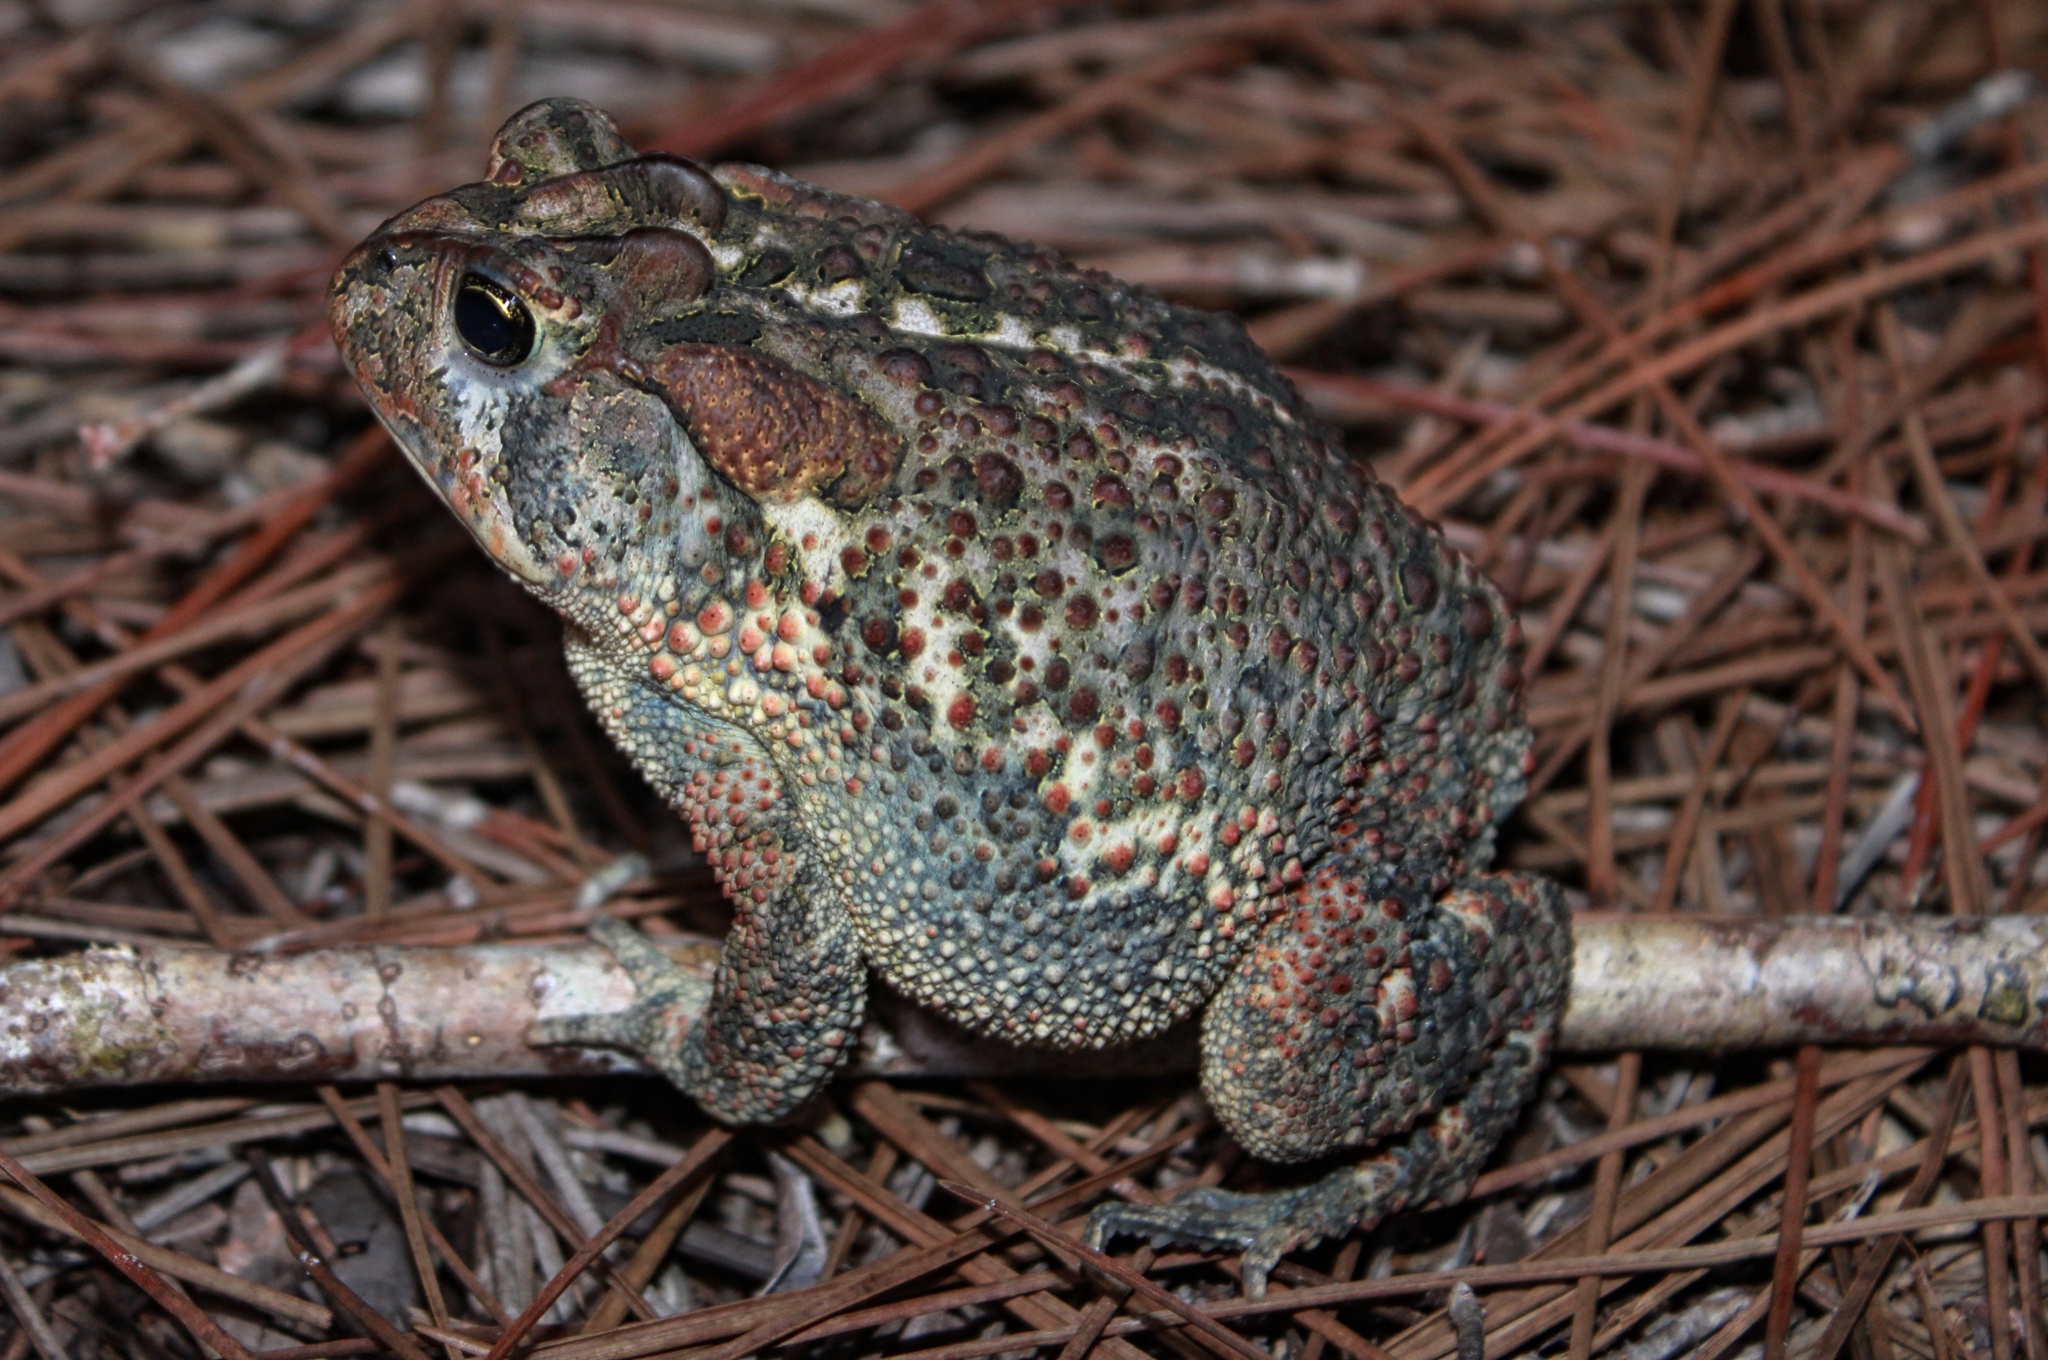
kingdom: Animalia
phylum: Chordata
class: Amphibia
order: Anura
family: Bufonidae
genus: Anaxyrus
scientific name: Anaxyrus terrestris
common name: Southern toad
